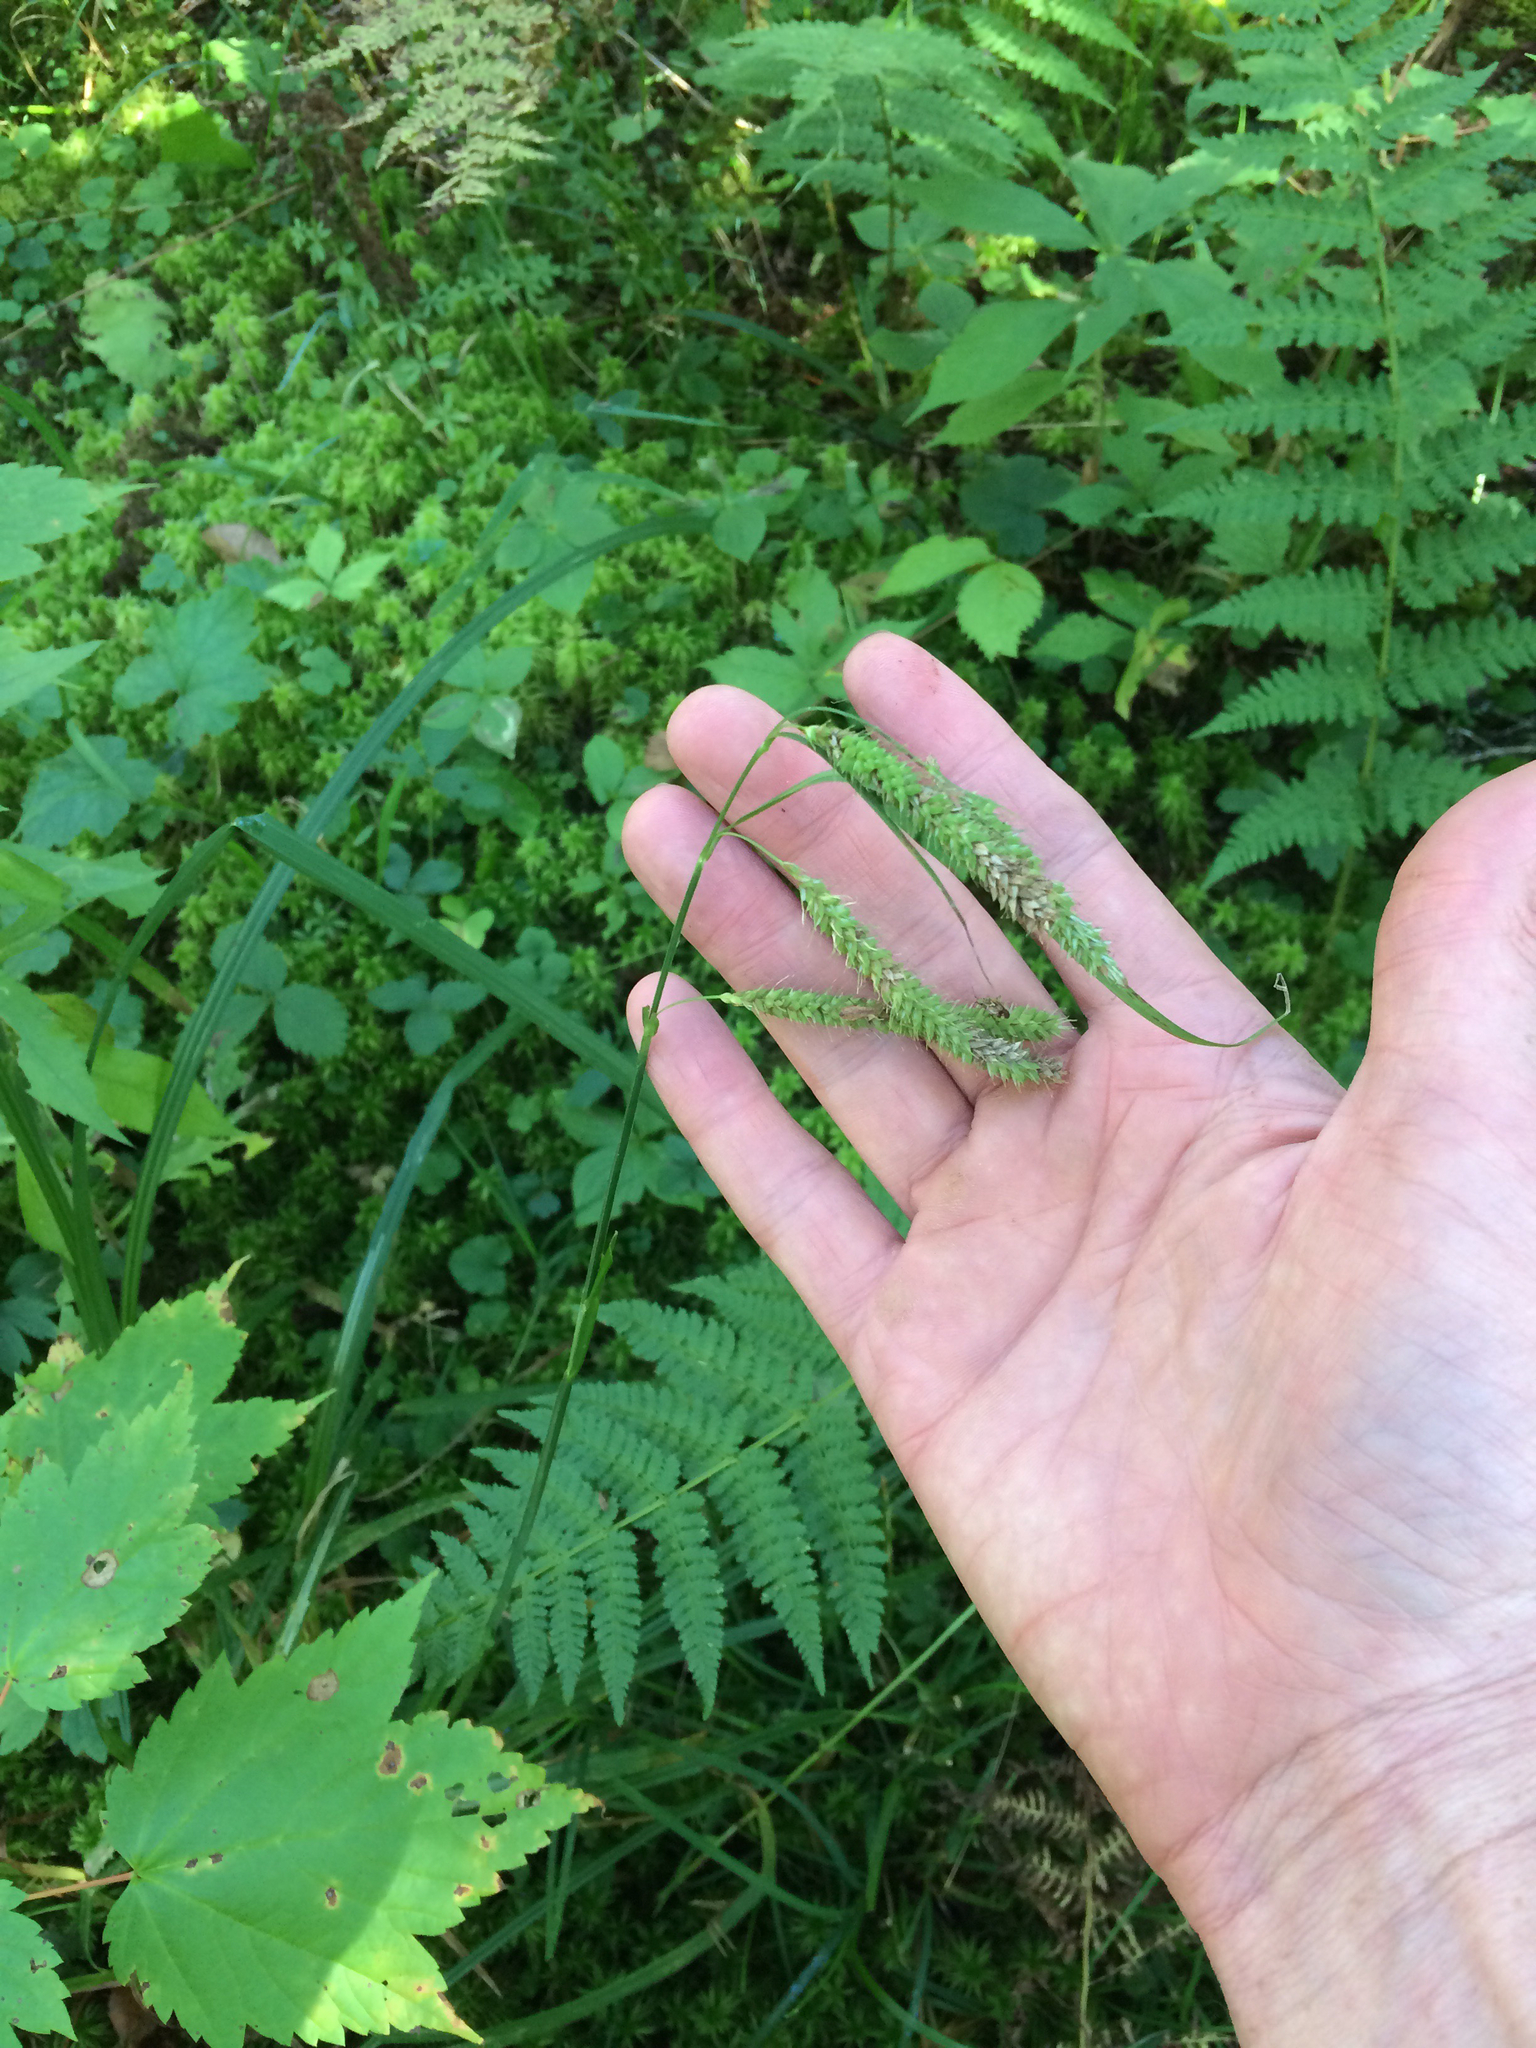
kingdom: Plantae
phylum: Tracheophyta
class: Liliopsida
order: Poales
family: Cyperaceae
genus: Carex
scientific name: Carex crinita
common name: Fringed sedge
